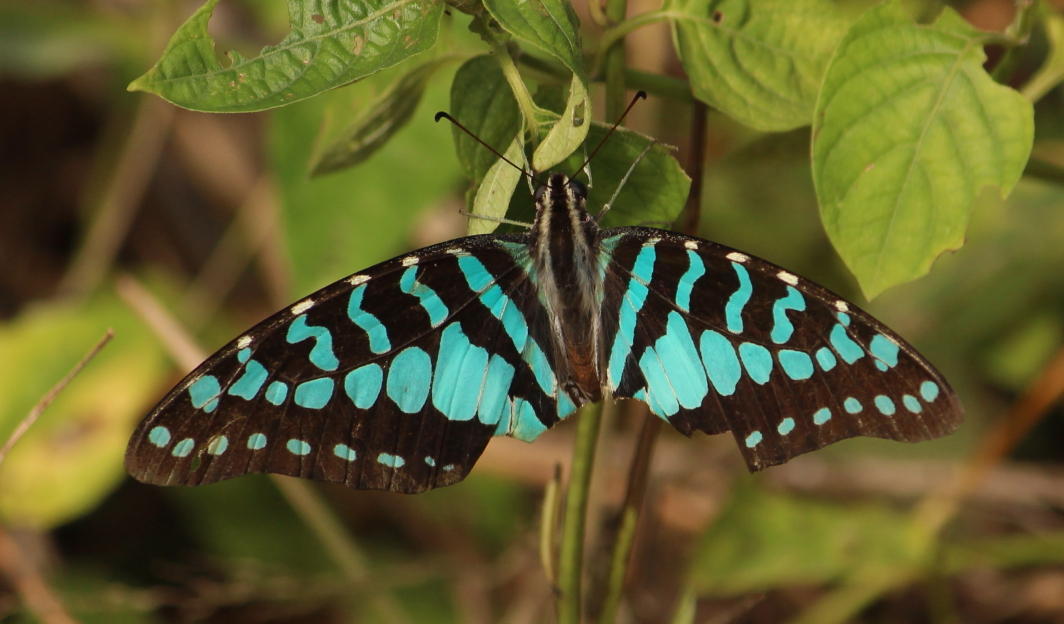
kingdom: Animalia
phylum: Arthropoda
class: Insecta
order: Lepidoptera
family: Papilionidae
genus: Graphium
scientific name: Graphium antheus
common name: Large striped swordtail
